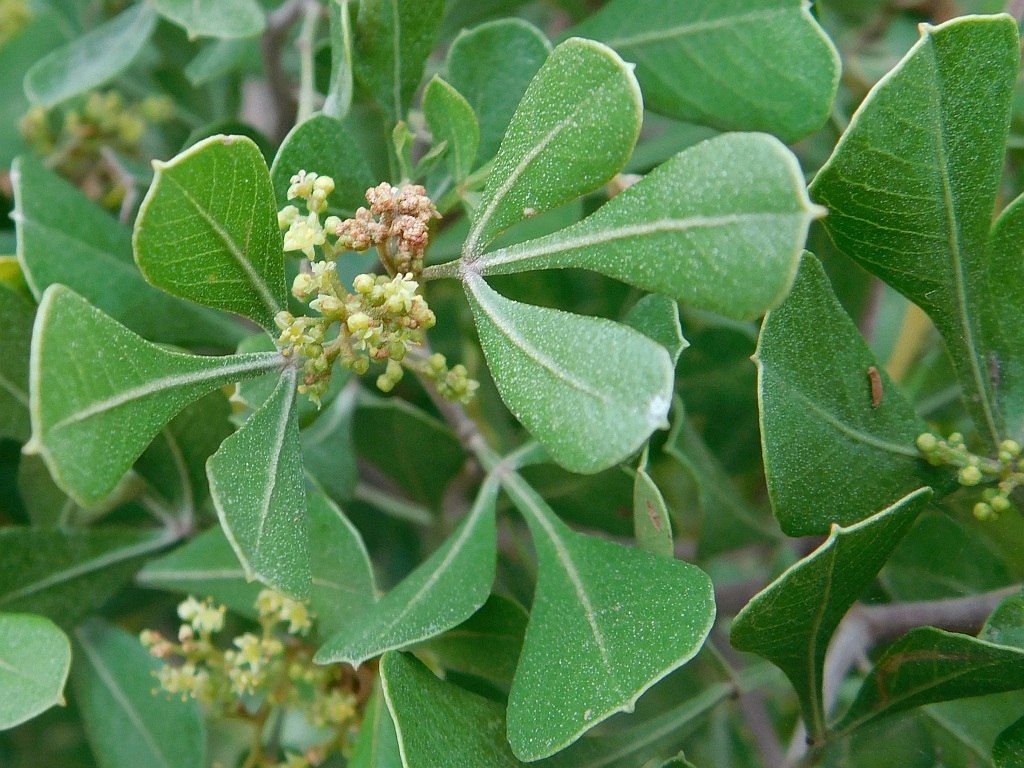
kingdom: Plantae
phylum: Tracheophyta
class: Magnoliopsida
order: Sapindales
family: Anacardiaceae
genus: Searsia
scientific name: Searsia pallens
